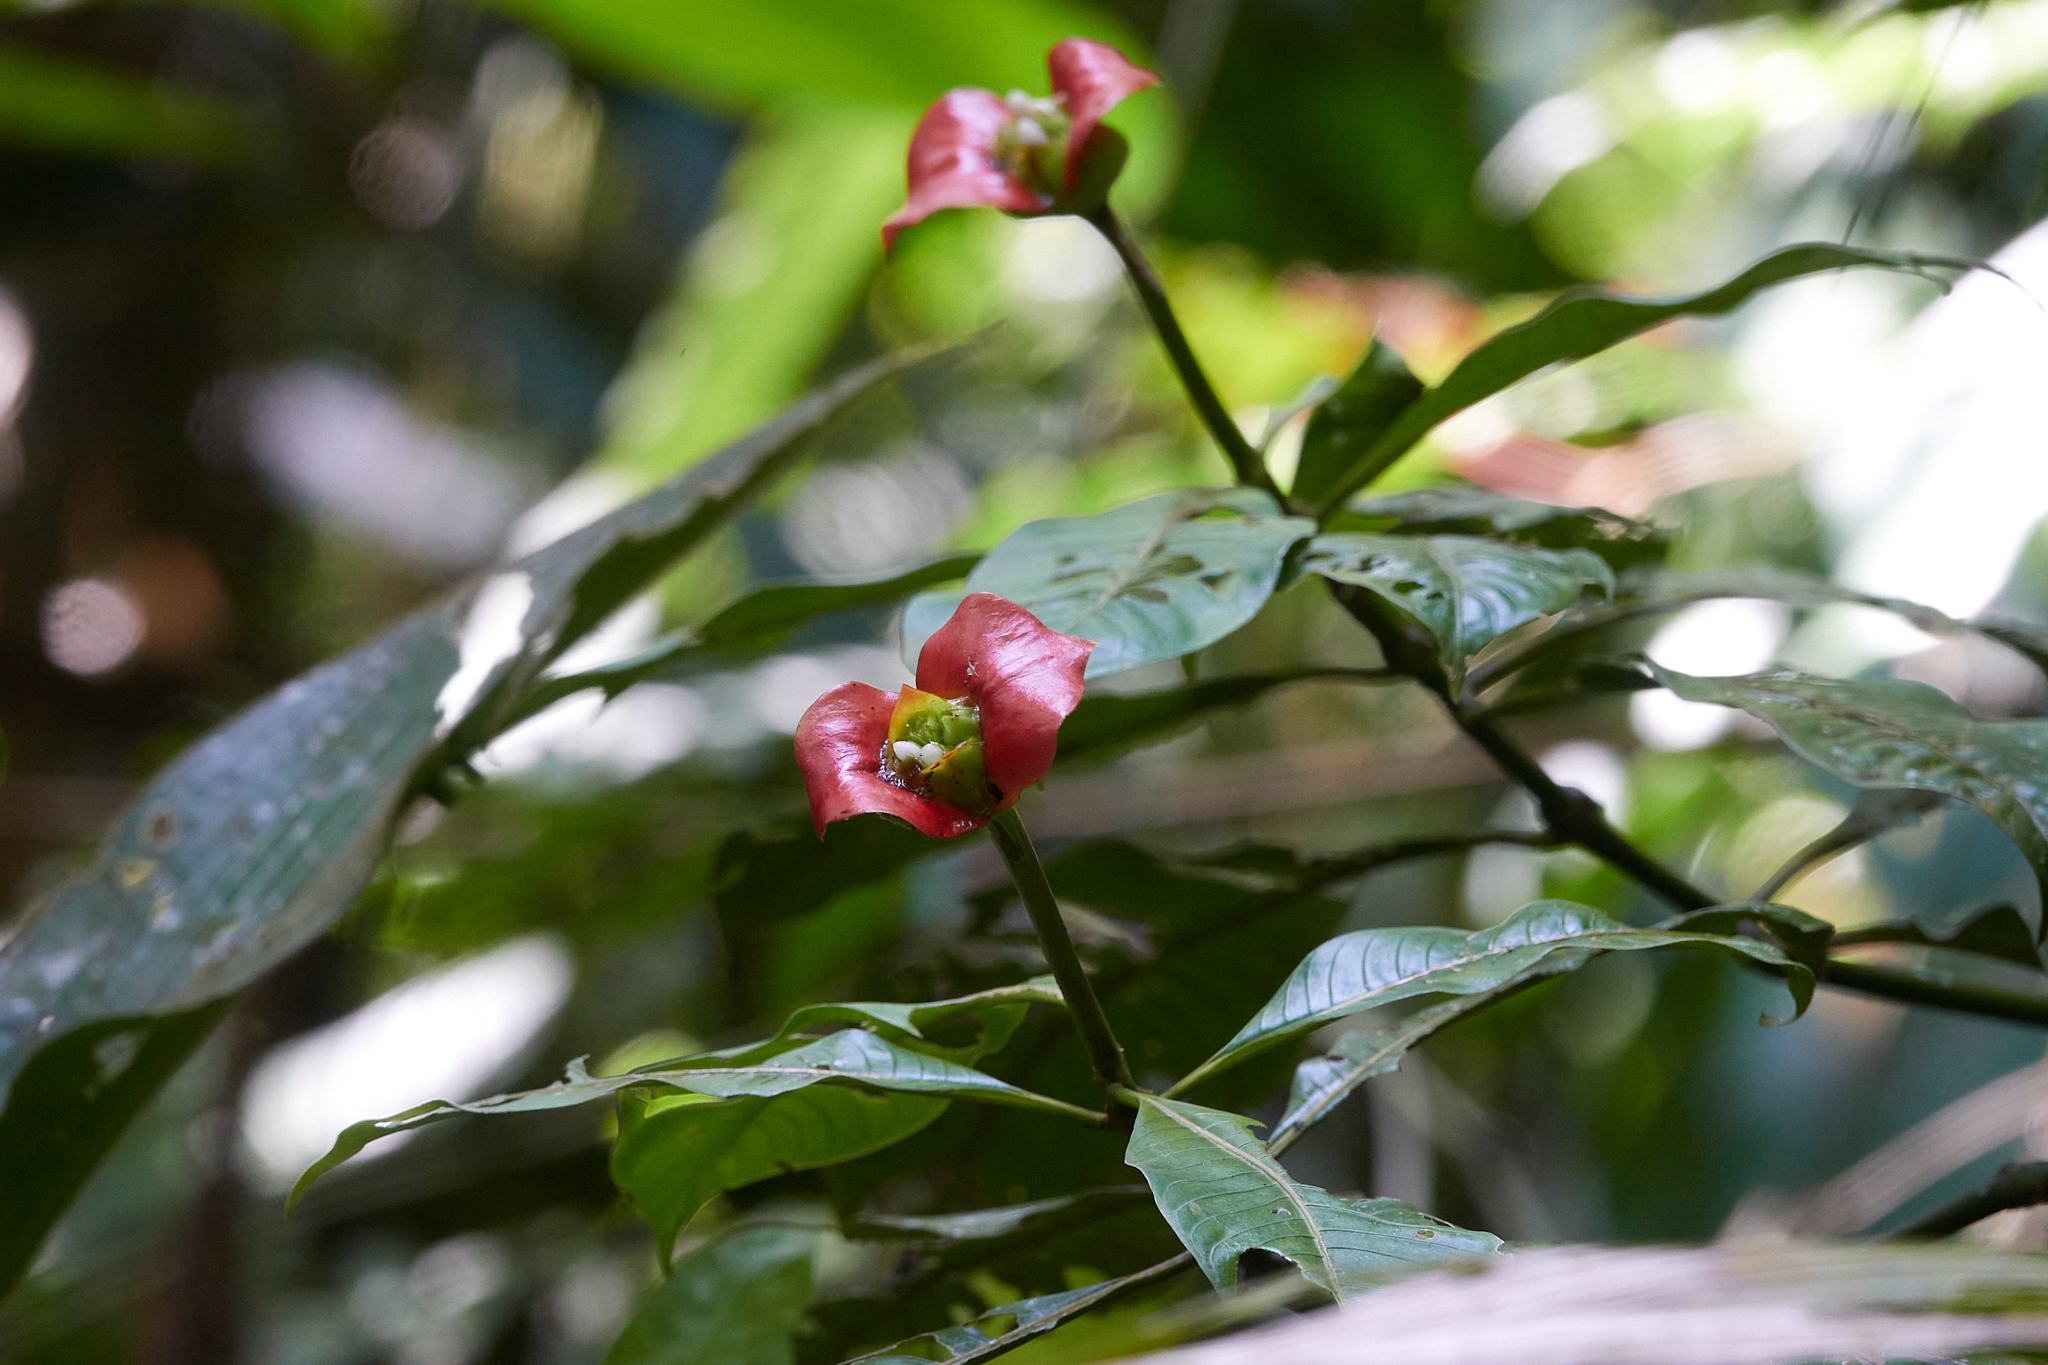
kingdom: Plantae
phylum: Tracheophyta
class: Magnoliopsida
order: Gentianales
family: Rubiaceae
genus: Palicourea
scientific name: Palicourea elata
